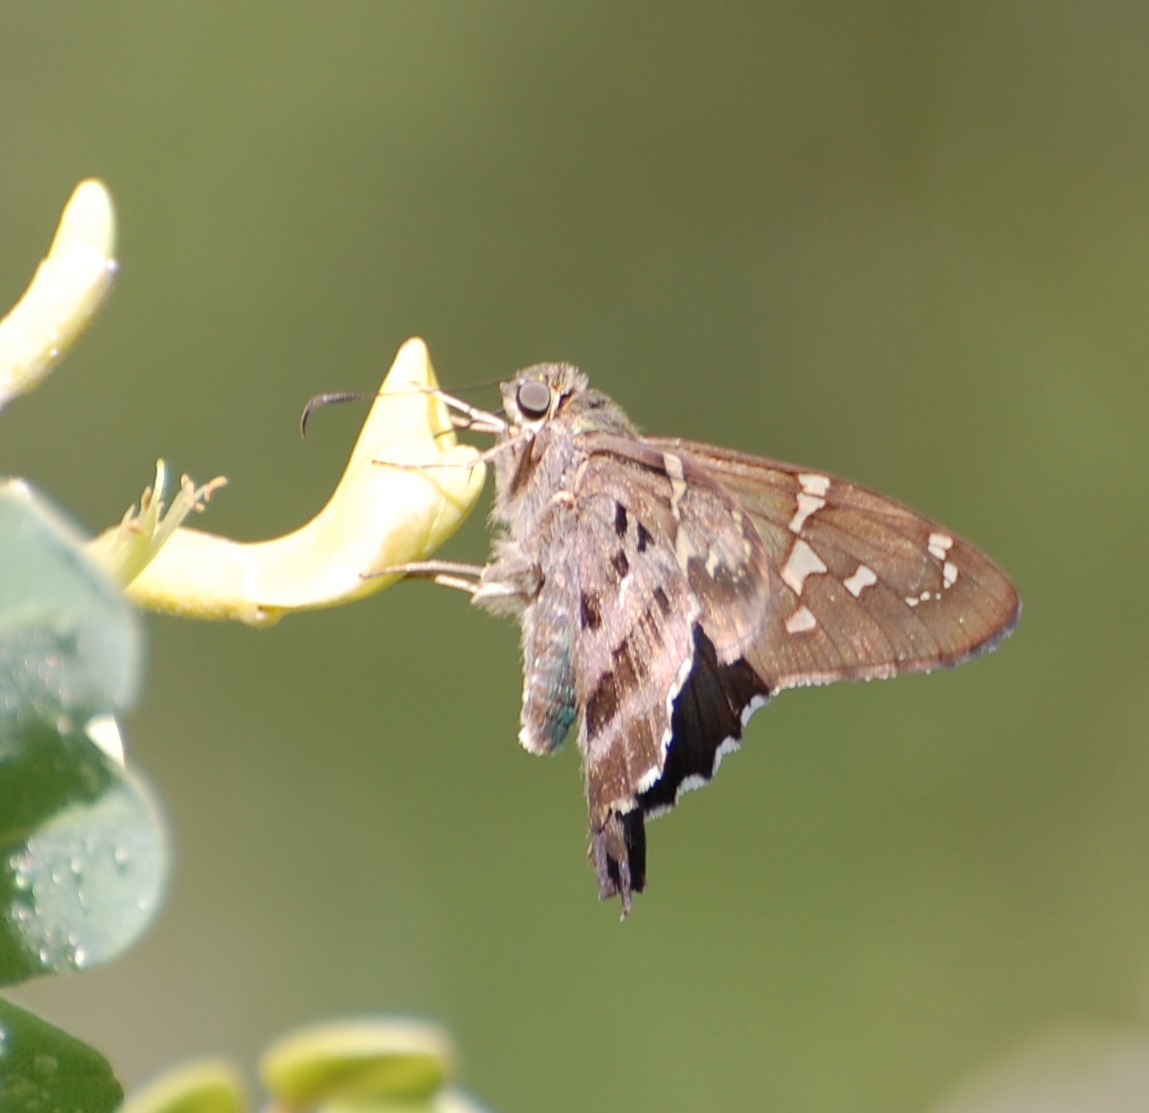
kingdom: Animalia
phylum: Arthropoda
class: Insecta
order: Lepidoptera
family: Hesperiidae
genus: Urbanus
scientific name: Urbanus proteus
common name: Long-tailed skipper
